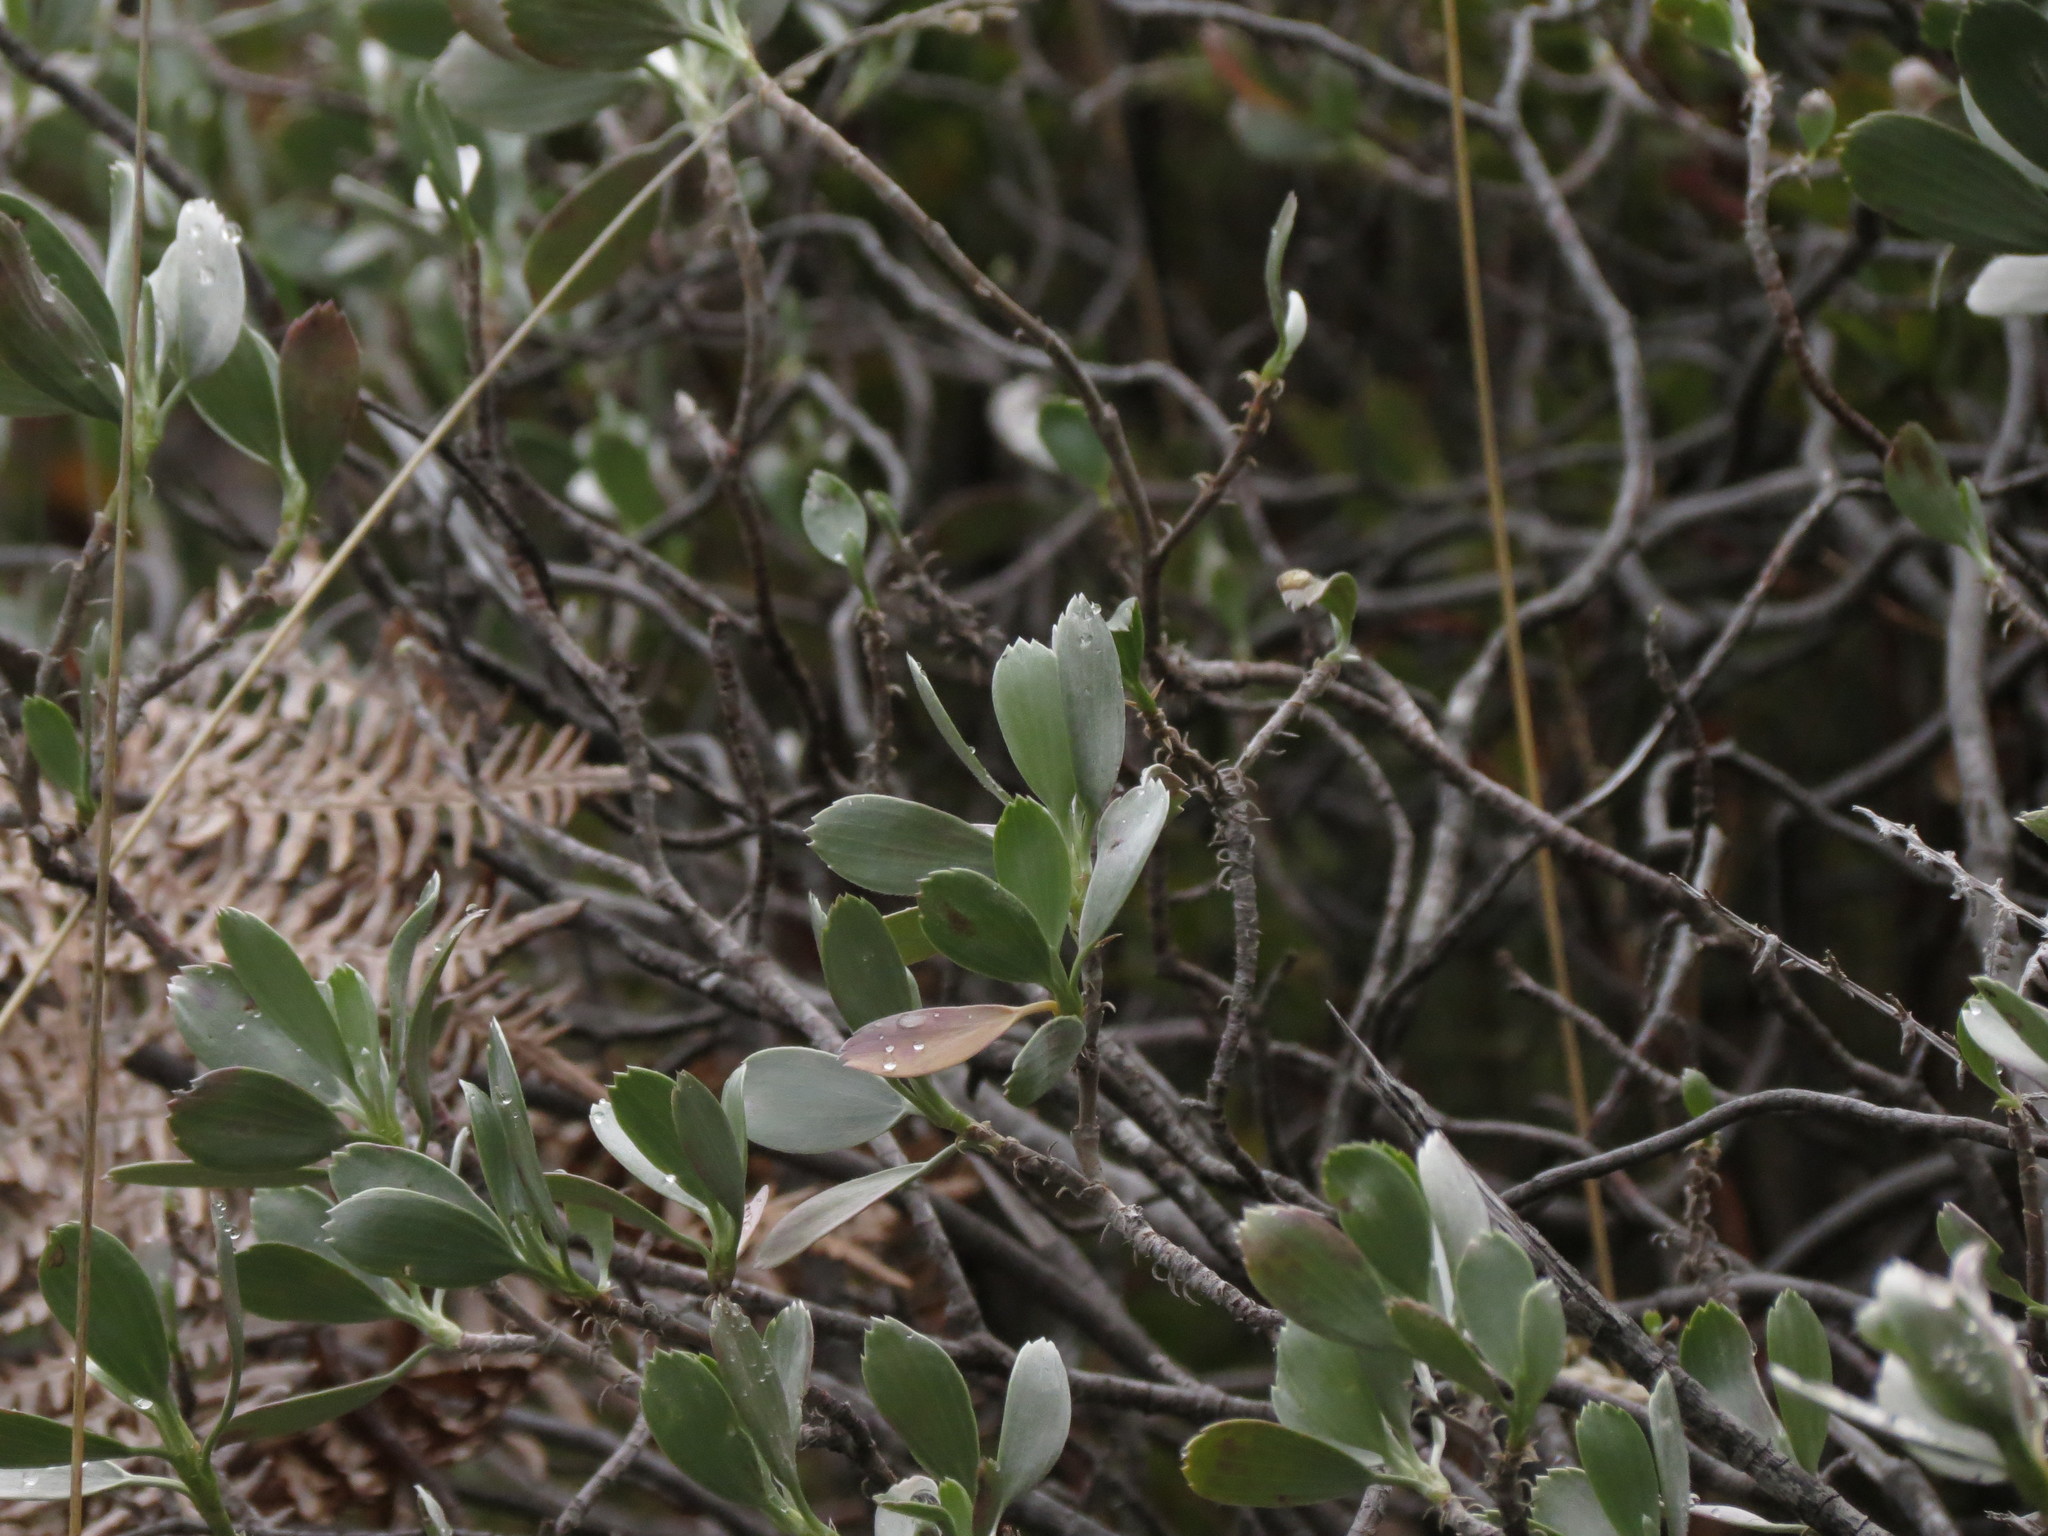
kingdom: Plantae
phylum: Tracheophyta
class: Magnoliopsida
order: Geraniales
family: Geraniaceae
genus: Geranium
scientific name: Geranium cuneatum
